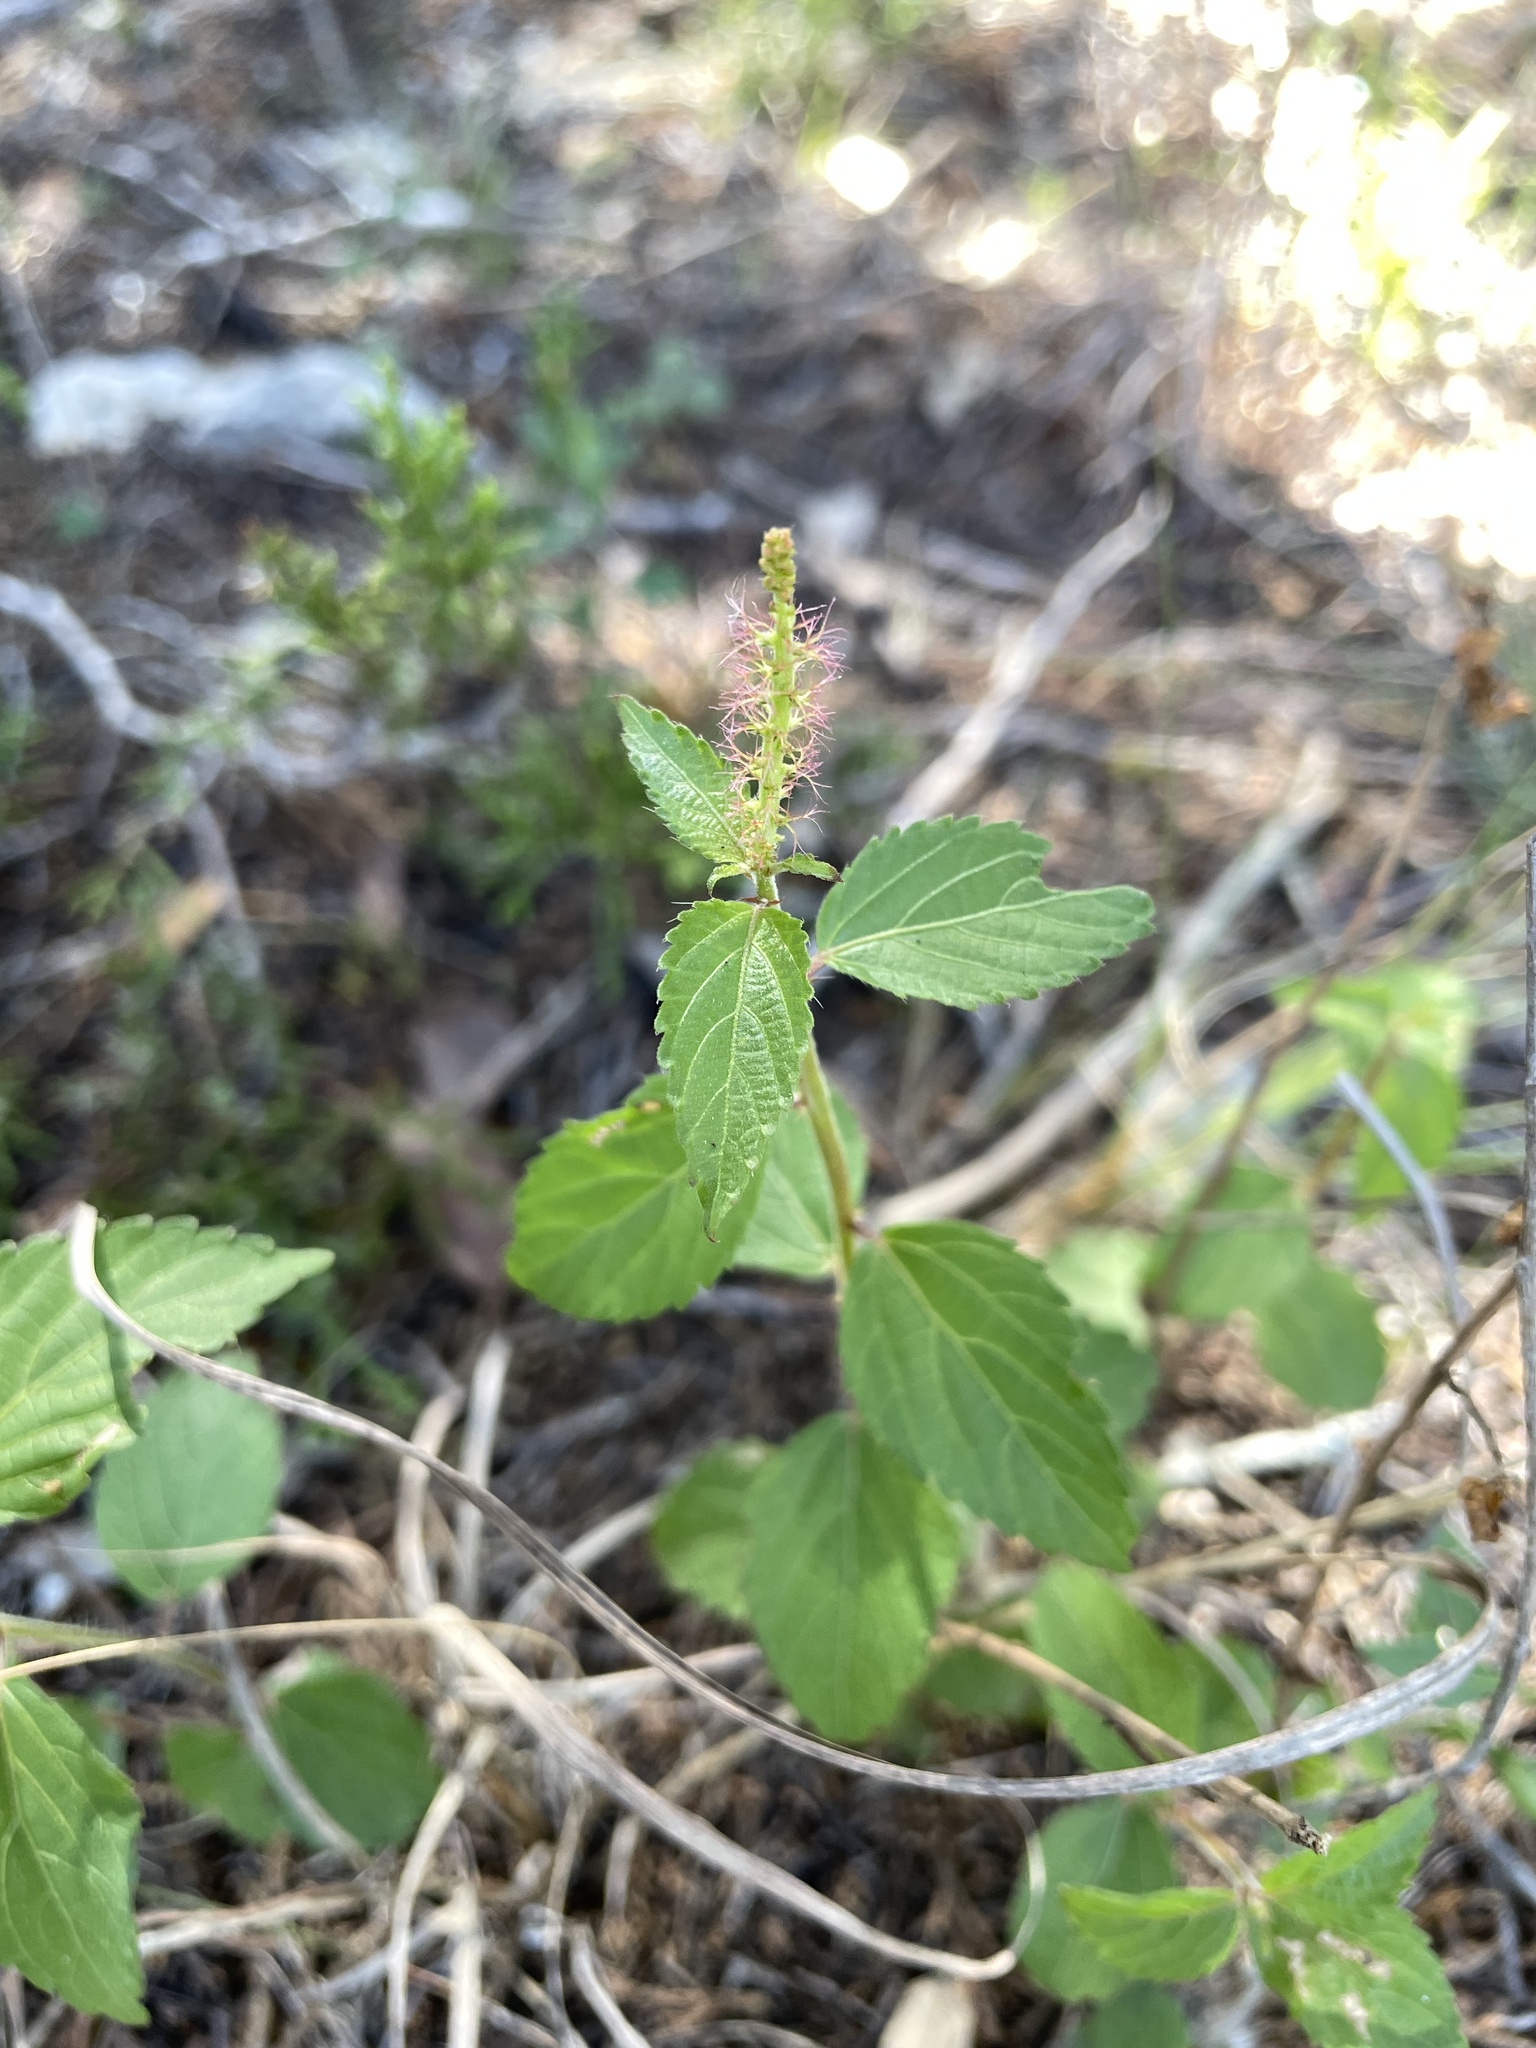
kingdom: Plantae
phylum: Tracheophyta
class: Magnoliopsida
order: Malpighiales
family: Euphorbiaceae
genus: Acalypha
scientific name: Acalypha phleoides
